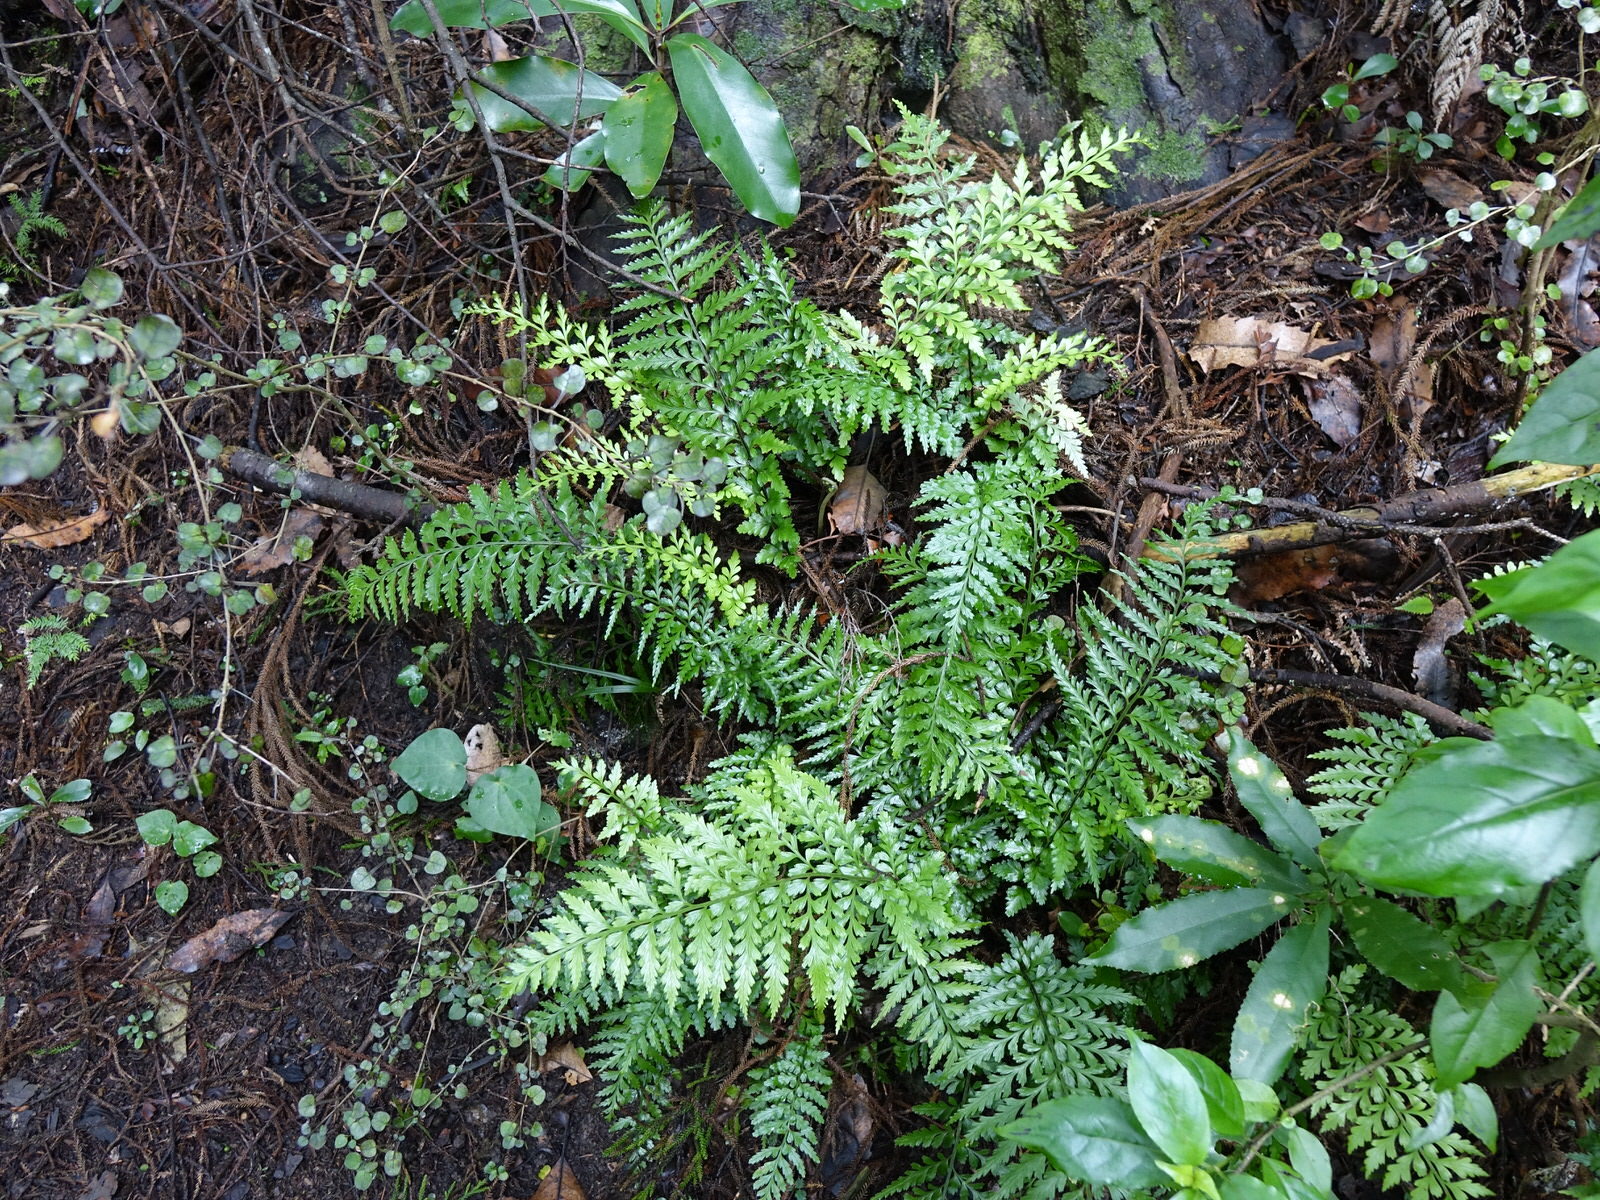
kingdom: Plantae
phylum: Tracheophyta
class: Polypodiopsida
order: Polypodiales
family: Aspleniaceae
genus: Asplenium
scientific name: Asplenium lamprophyllum
